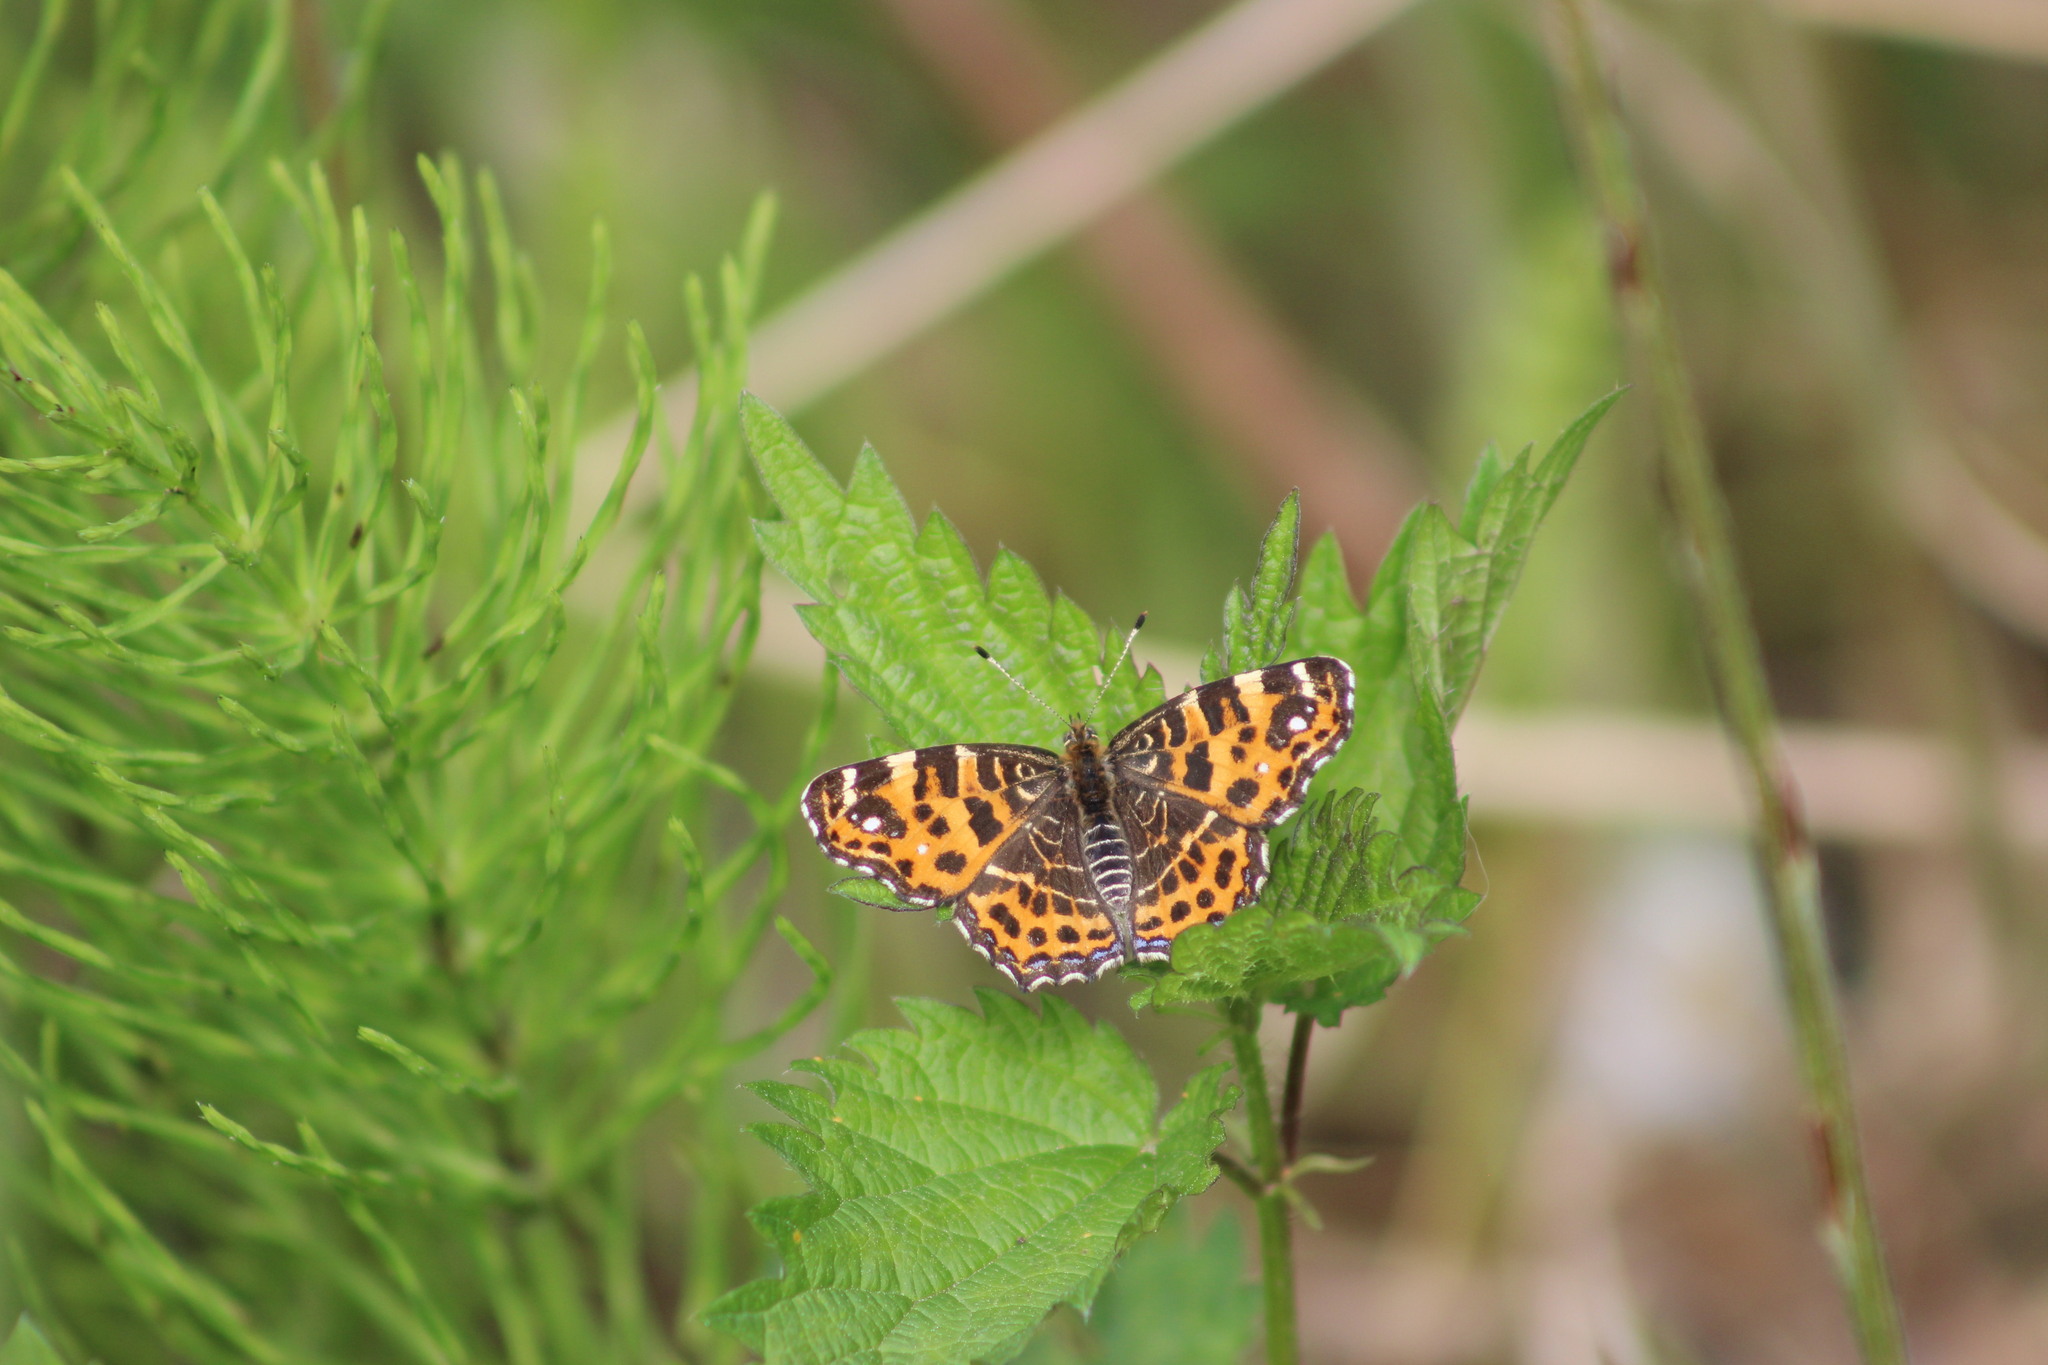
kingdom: Animalia
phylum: Arthropoda
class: Insecta
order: Lepidoptera
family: Nymphalidae
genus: Araschnia
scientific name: Araschnia levana
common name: Map butterfly
